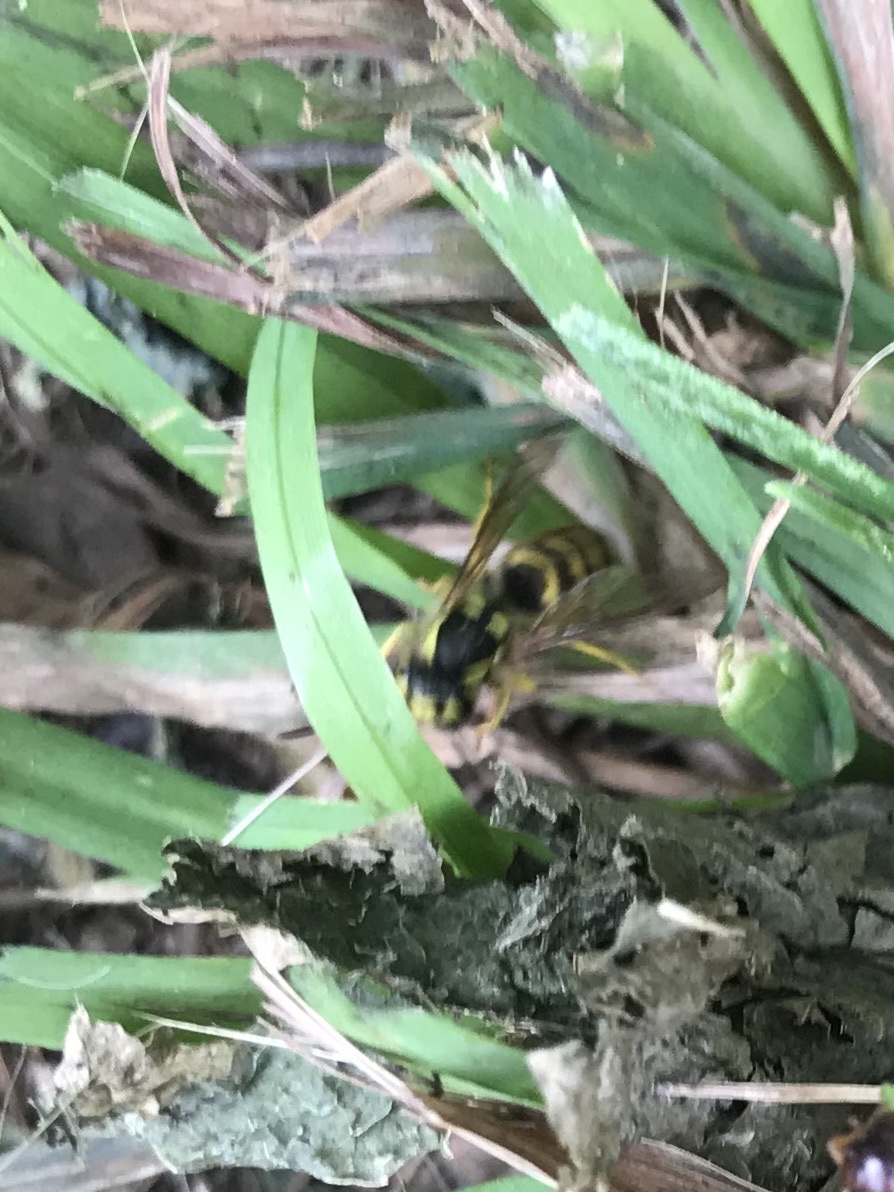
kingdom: Animalia
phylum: Arthropoda
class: Insecta
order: Hymenoptera
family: Vespidae
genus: Vespula
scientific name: Vespula flavopilosa
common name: Downy yellowjacket
